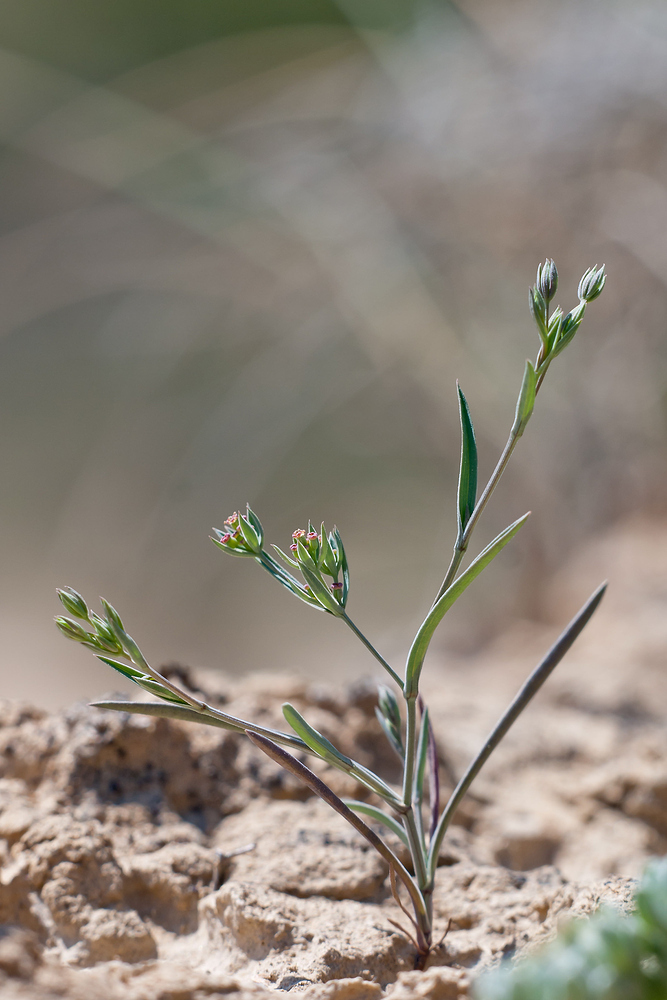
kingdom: Plantae
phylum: Tracheophyta
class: Magnoliopsida
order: Apiales
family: Apiaceae
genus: Bupleurum
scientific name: Bupleurum semicompositum
